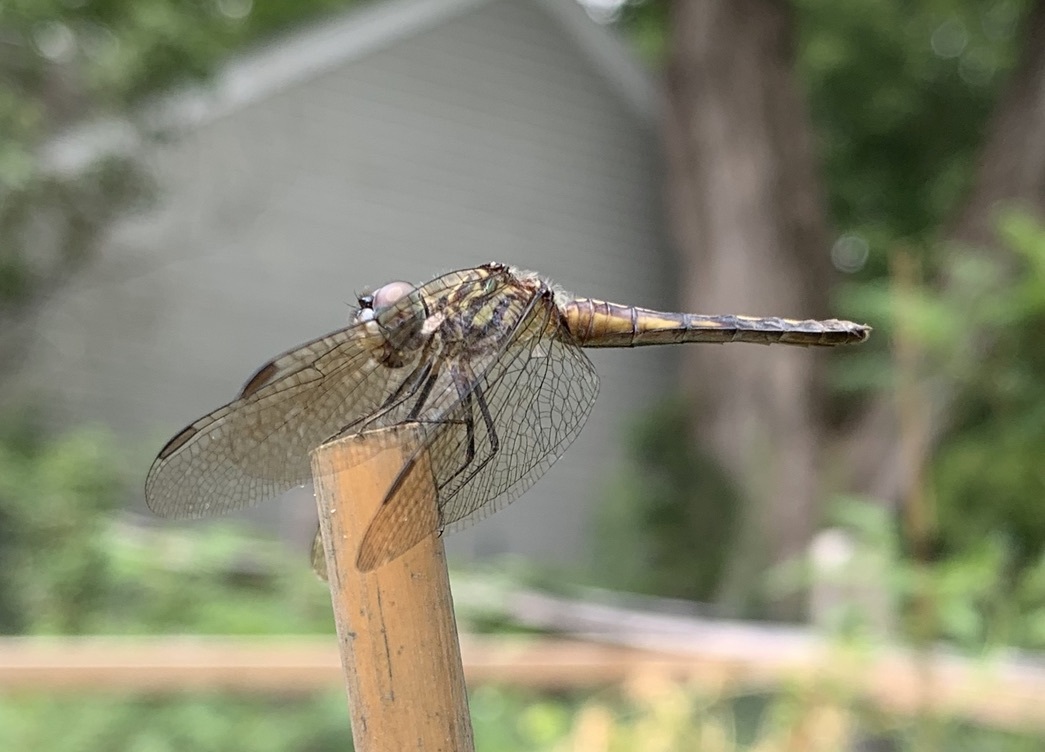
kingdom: Animalia
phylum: Arthropoda
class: Insecta
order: Odonata
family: Libellulidae
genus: Pachydiplax
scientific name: Pachydiplax longipennis
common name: Blue dasher
